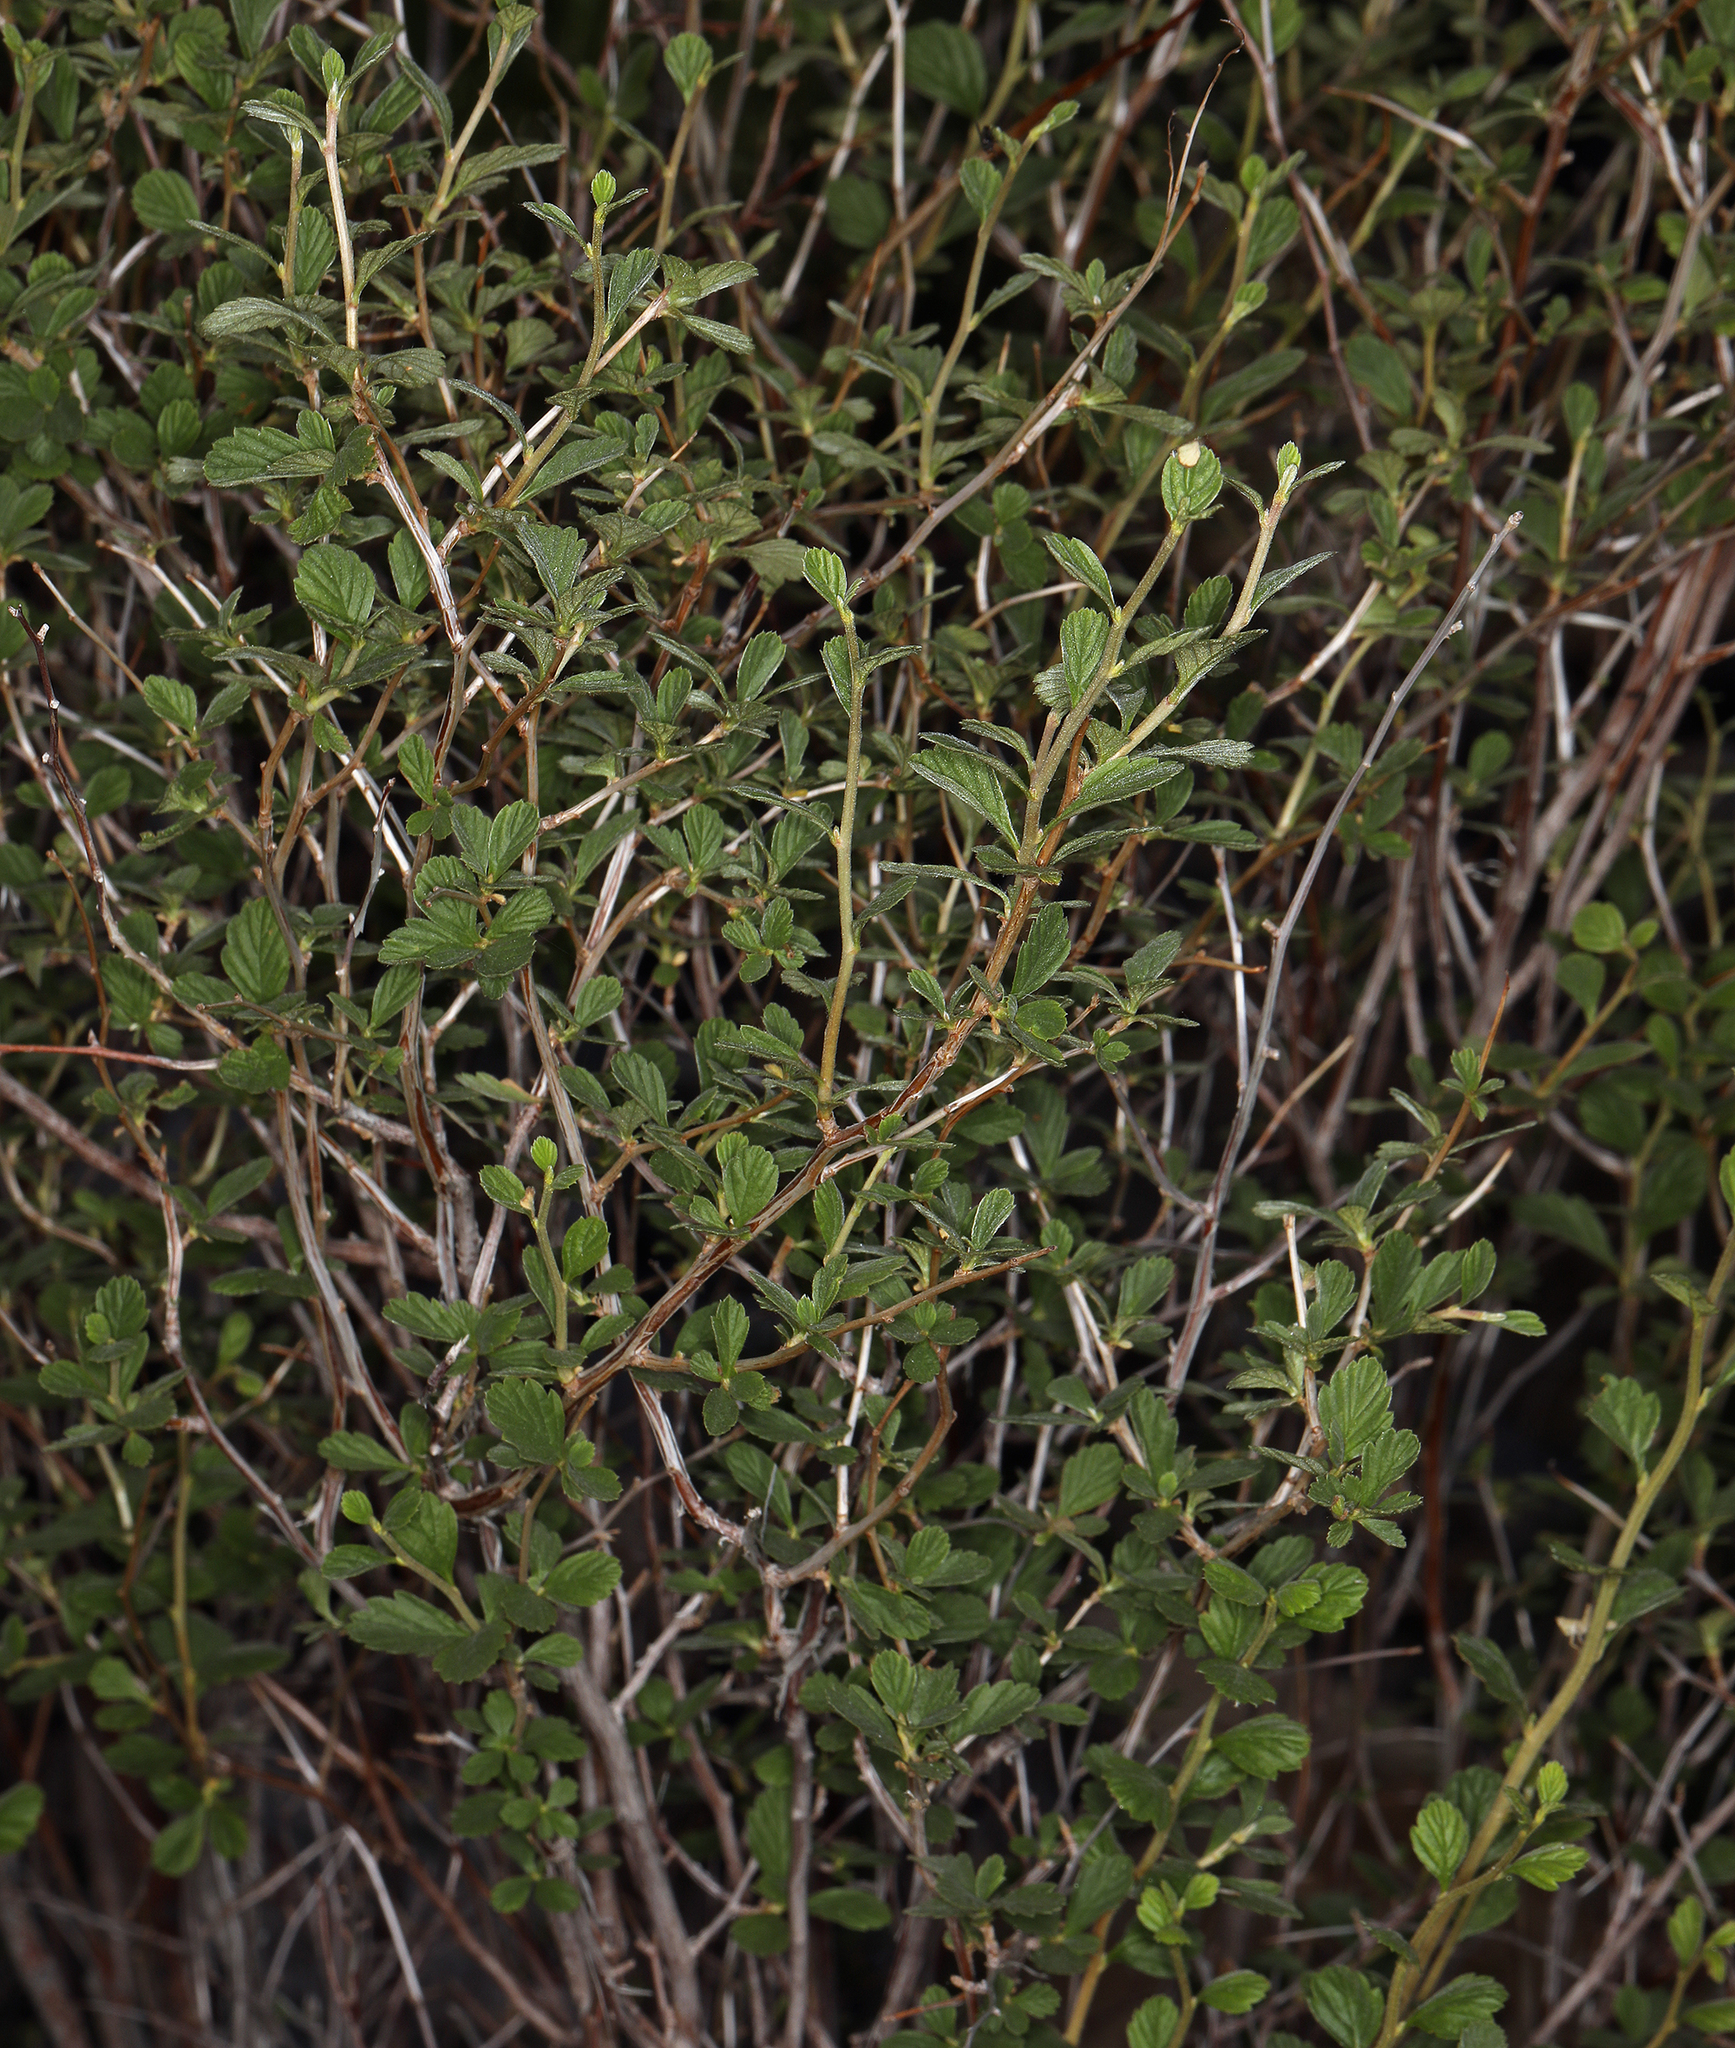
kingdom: Plantae
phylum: Tracheophyta
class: Magnoliopsida
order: Rosales
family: Rosaceae
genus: Holodiscus
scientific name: Holodiscus discolor
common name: Oceanspray
